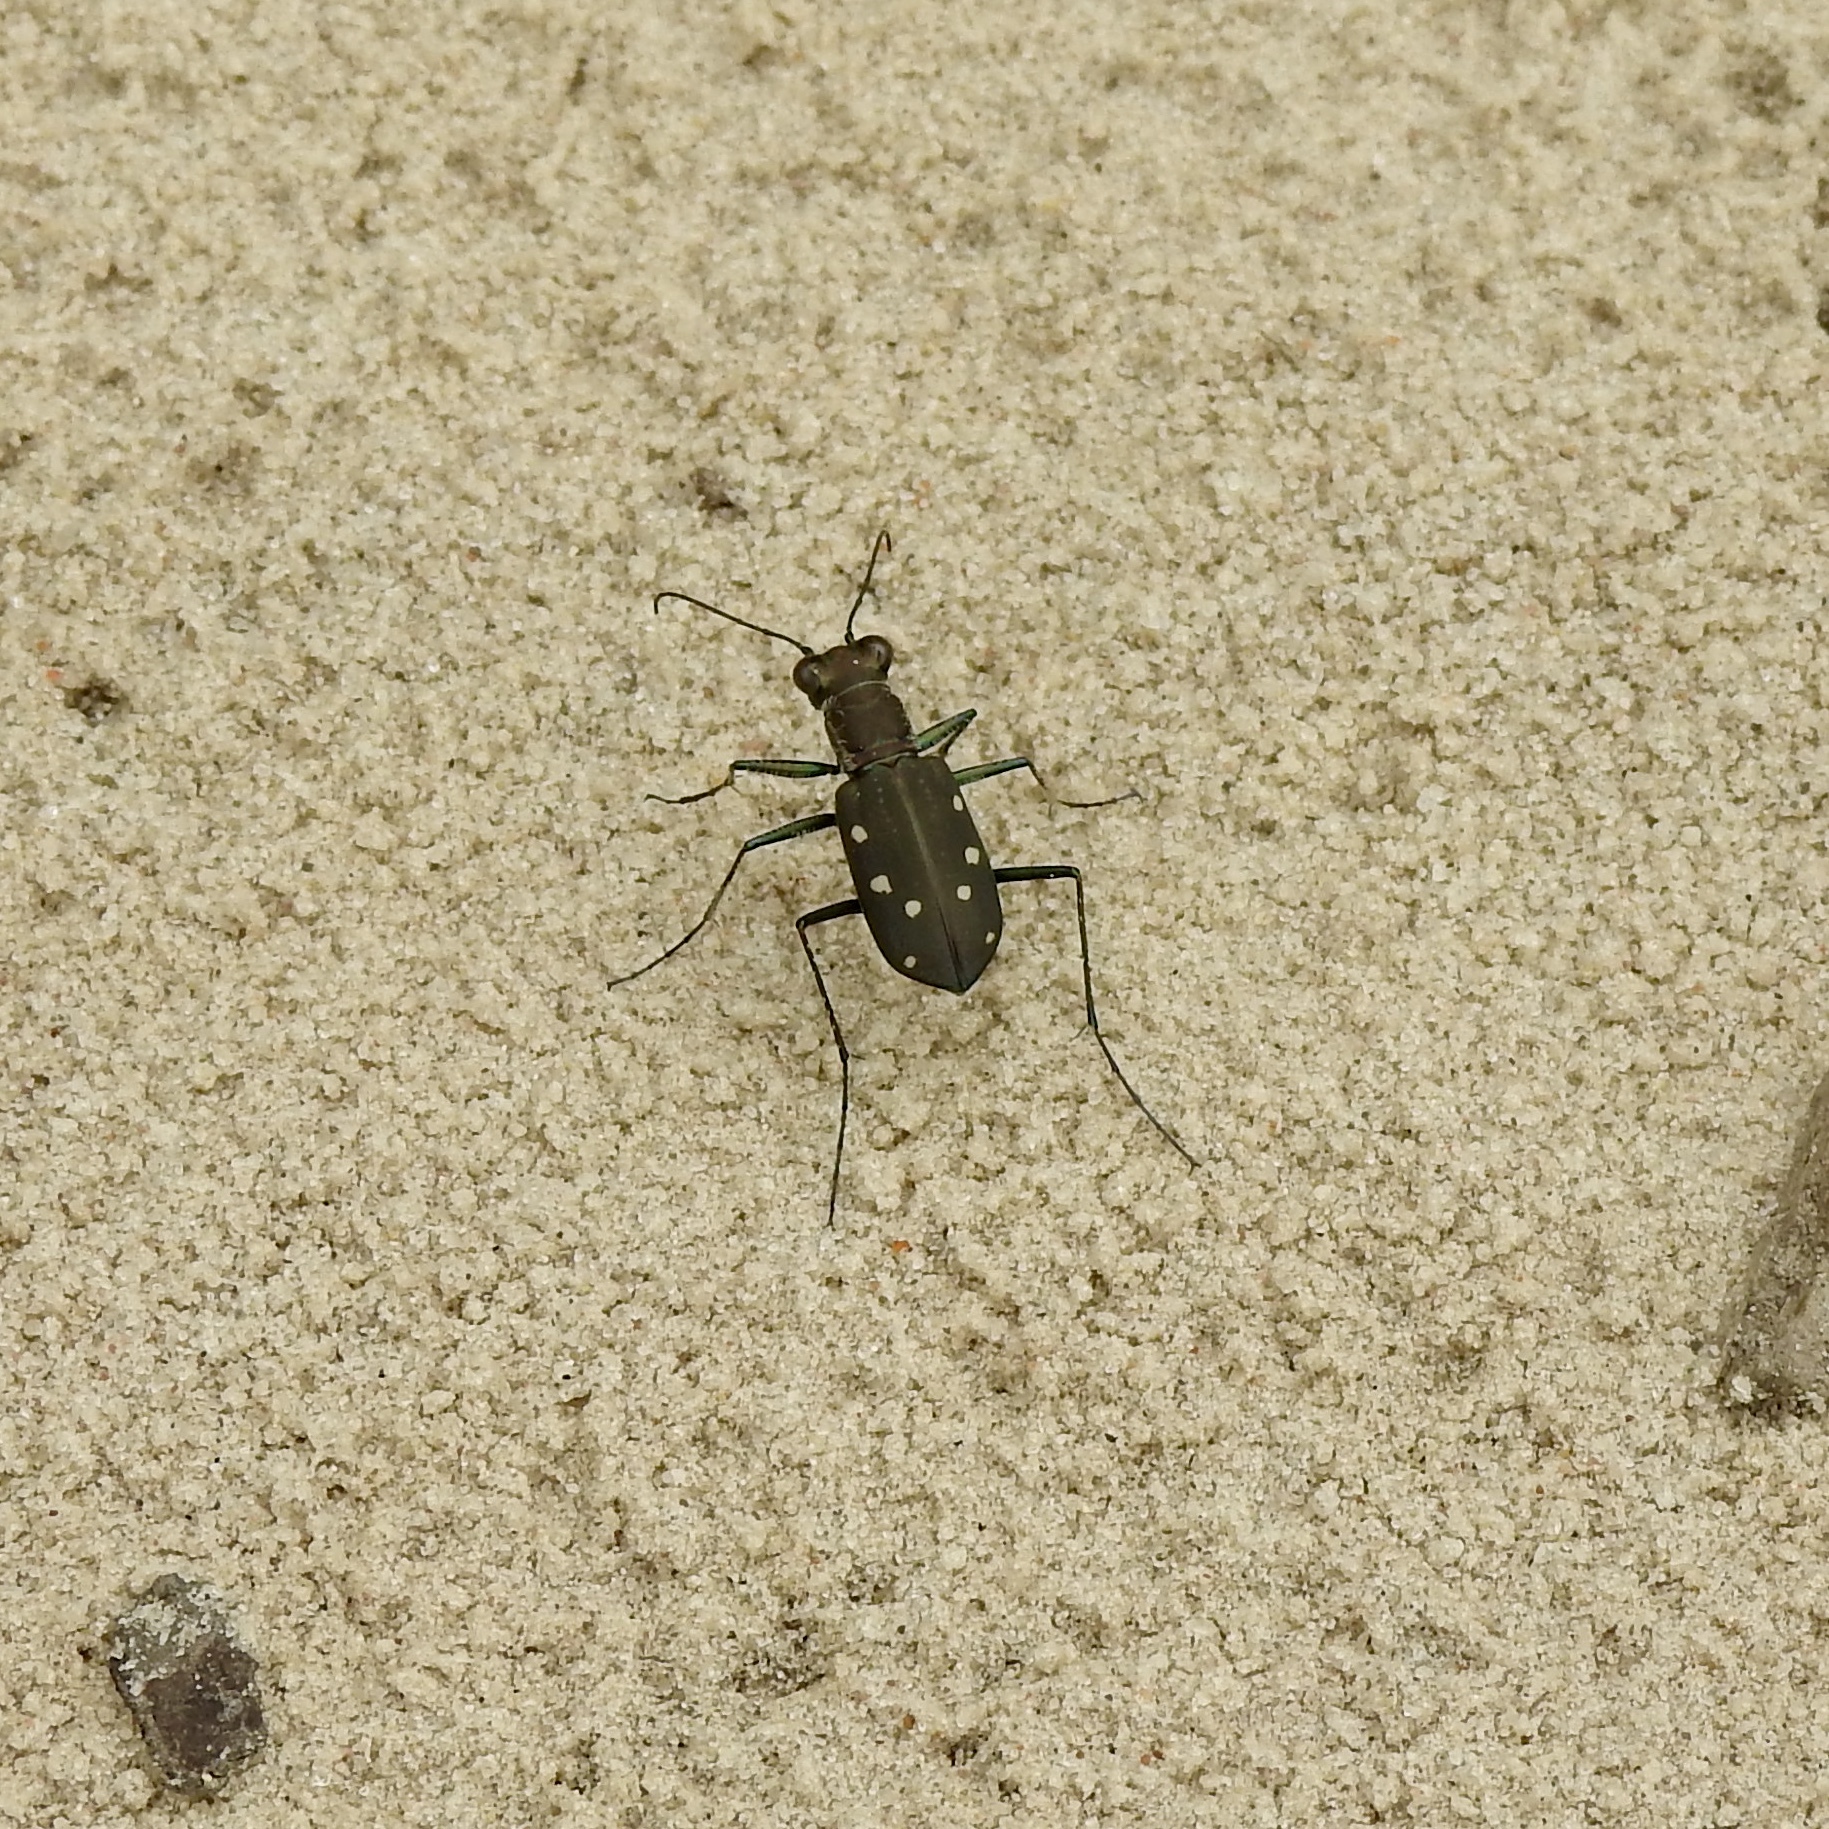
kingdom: Animalia
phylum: Arthropoda
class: Insecta
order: Coleoptera
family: Carabidae
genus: Cicindela
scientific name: Cicindela ocellata
